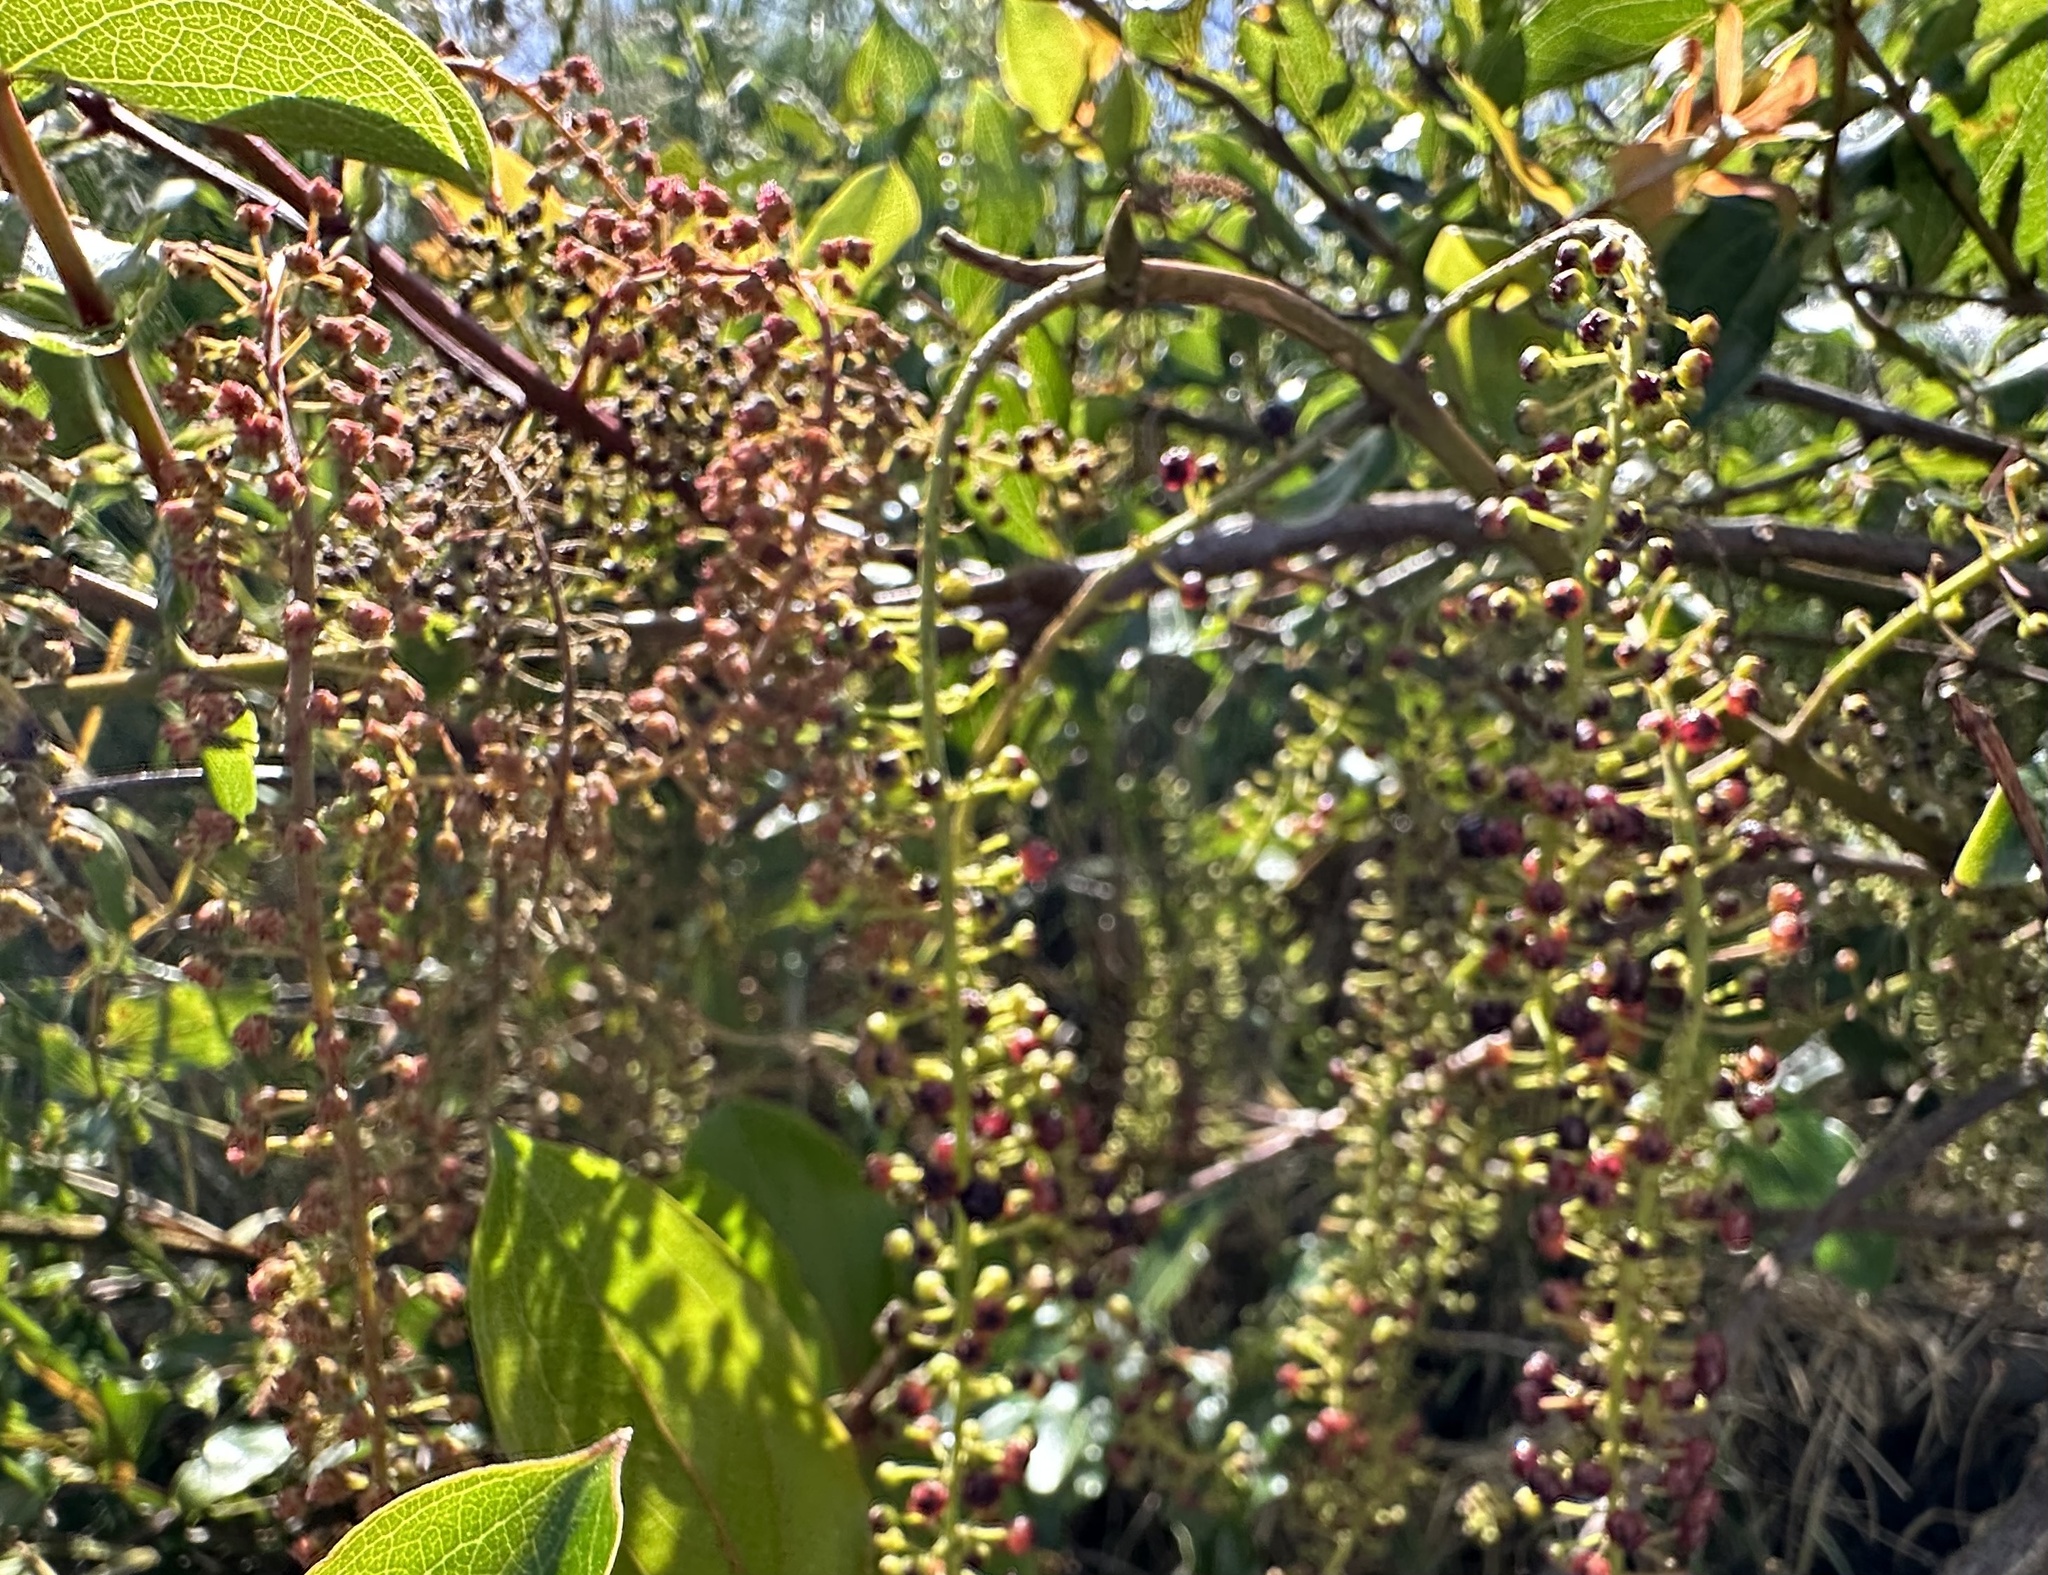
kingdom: Plantae
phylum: Tracheophyta
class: Magnoliopsida
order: Cucurbitales
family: Coriariaceae
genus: Coriaria
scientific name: Coriaria arborea
